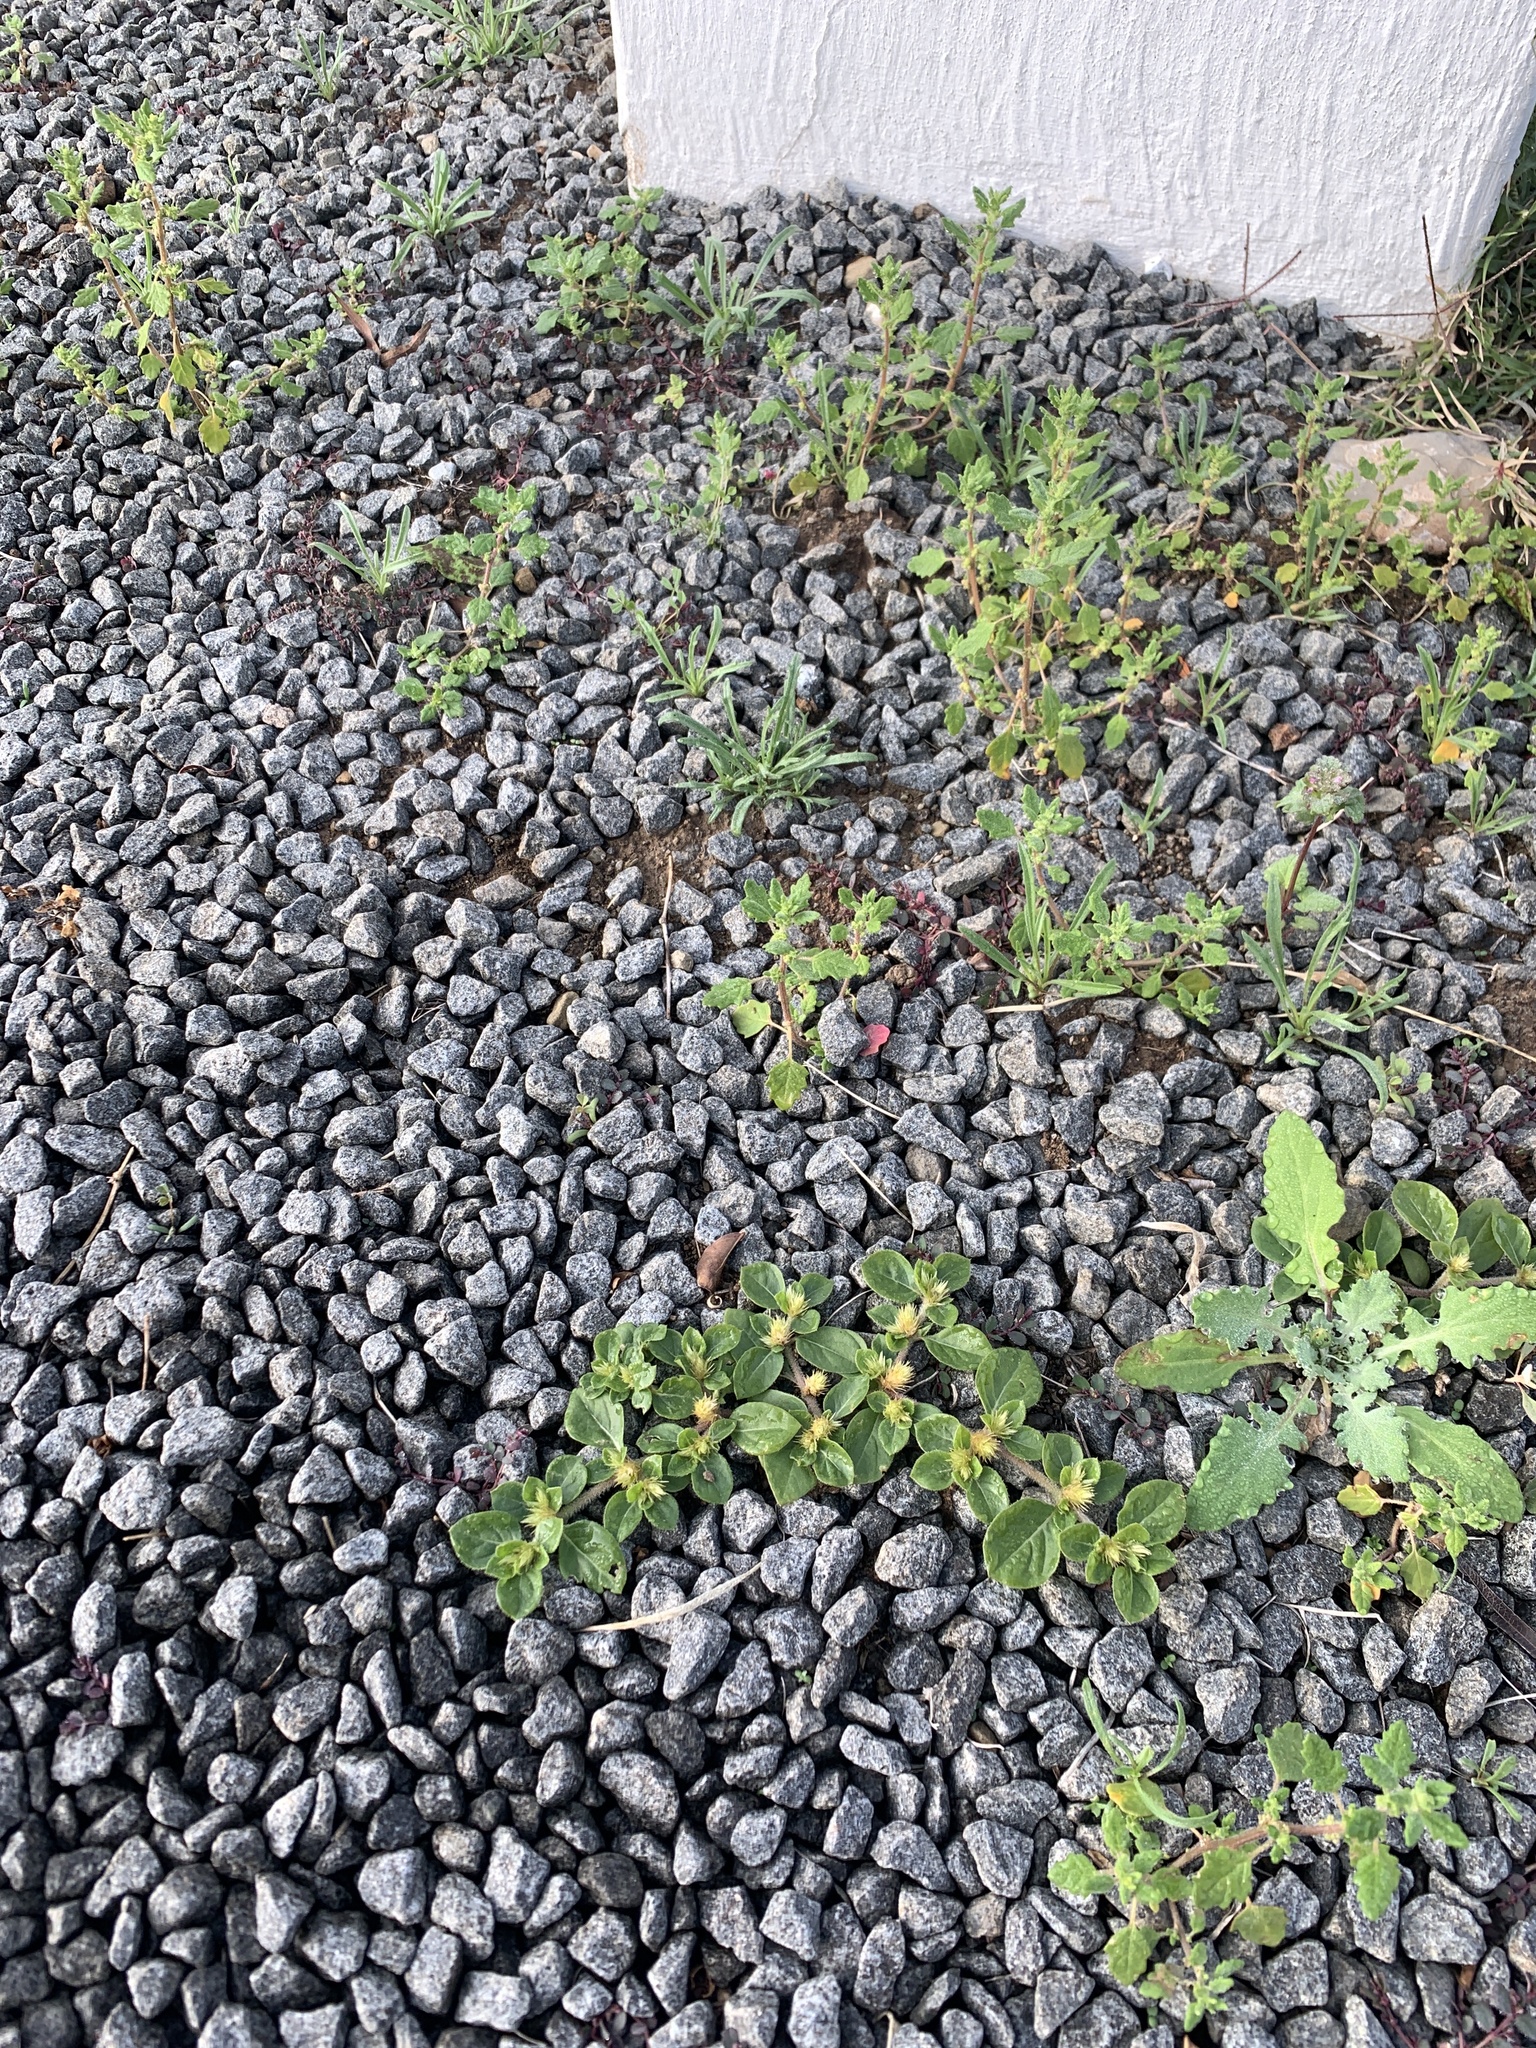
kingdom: Plantae
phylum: Tracheophyta
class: Magnoliopsida
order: Caryophyllales
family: Amaranthaceae
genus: Alternanthera
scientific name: Alternanthera pungens
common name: Khakiweed
